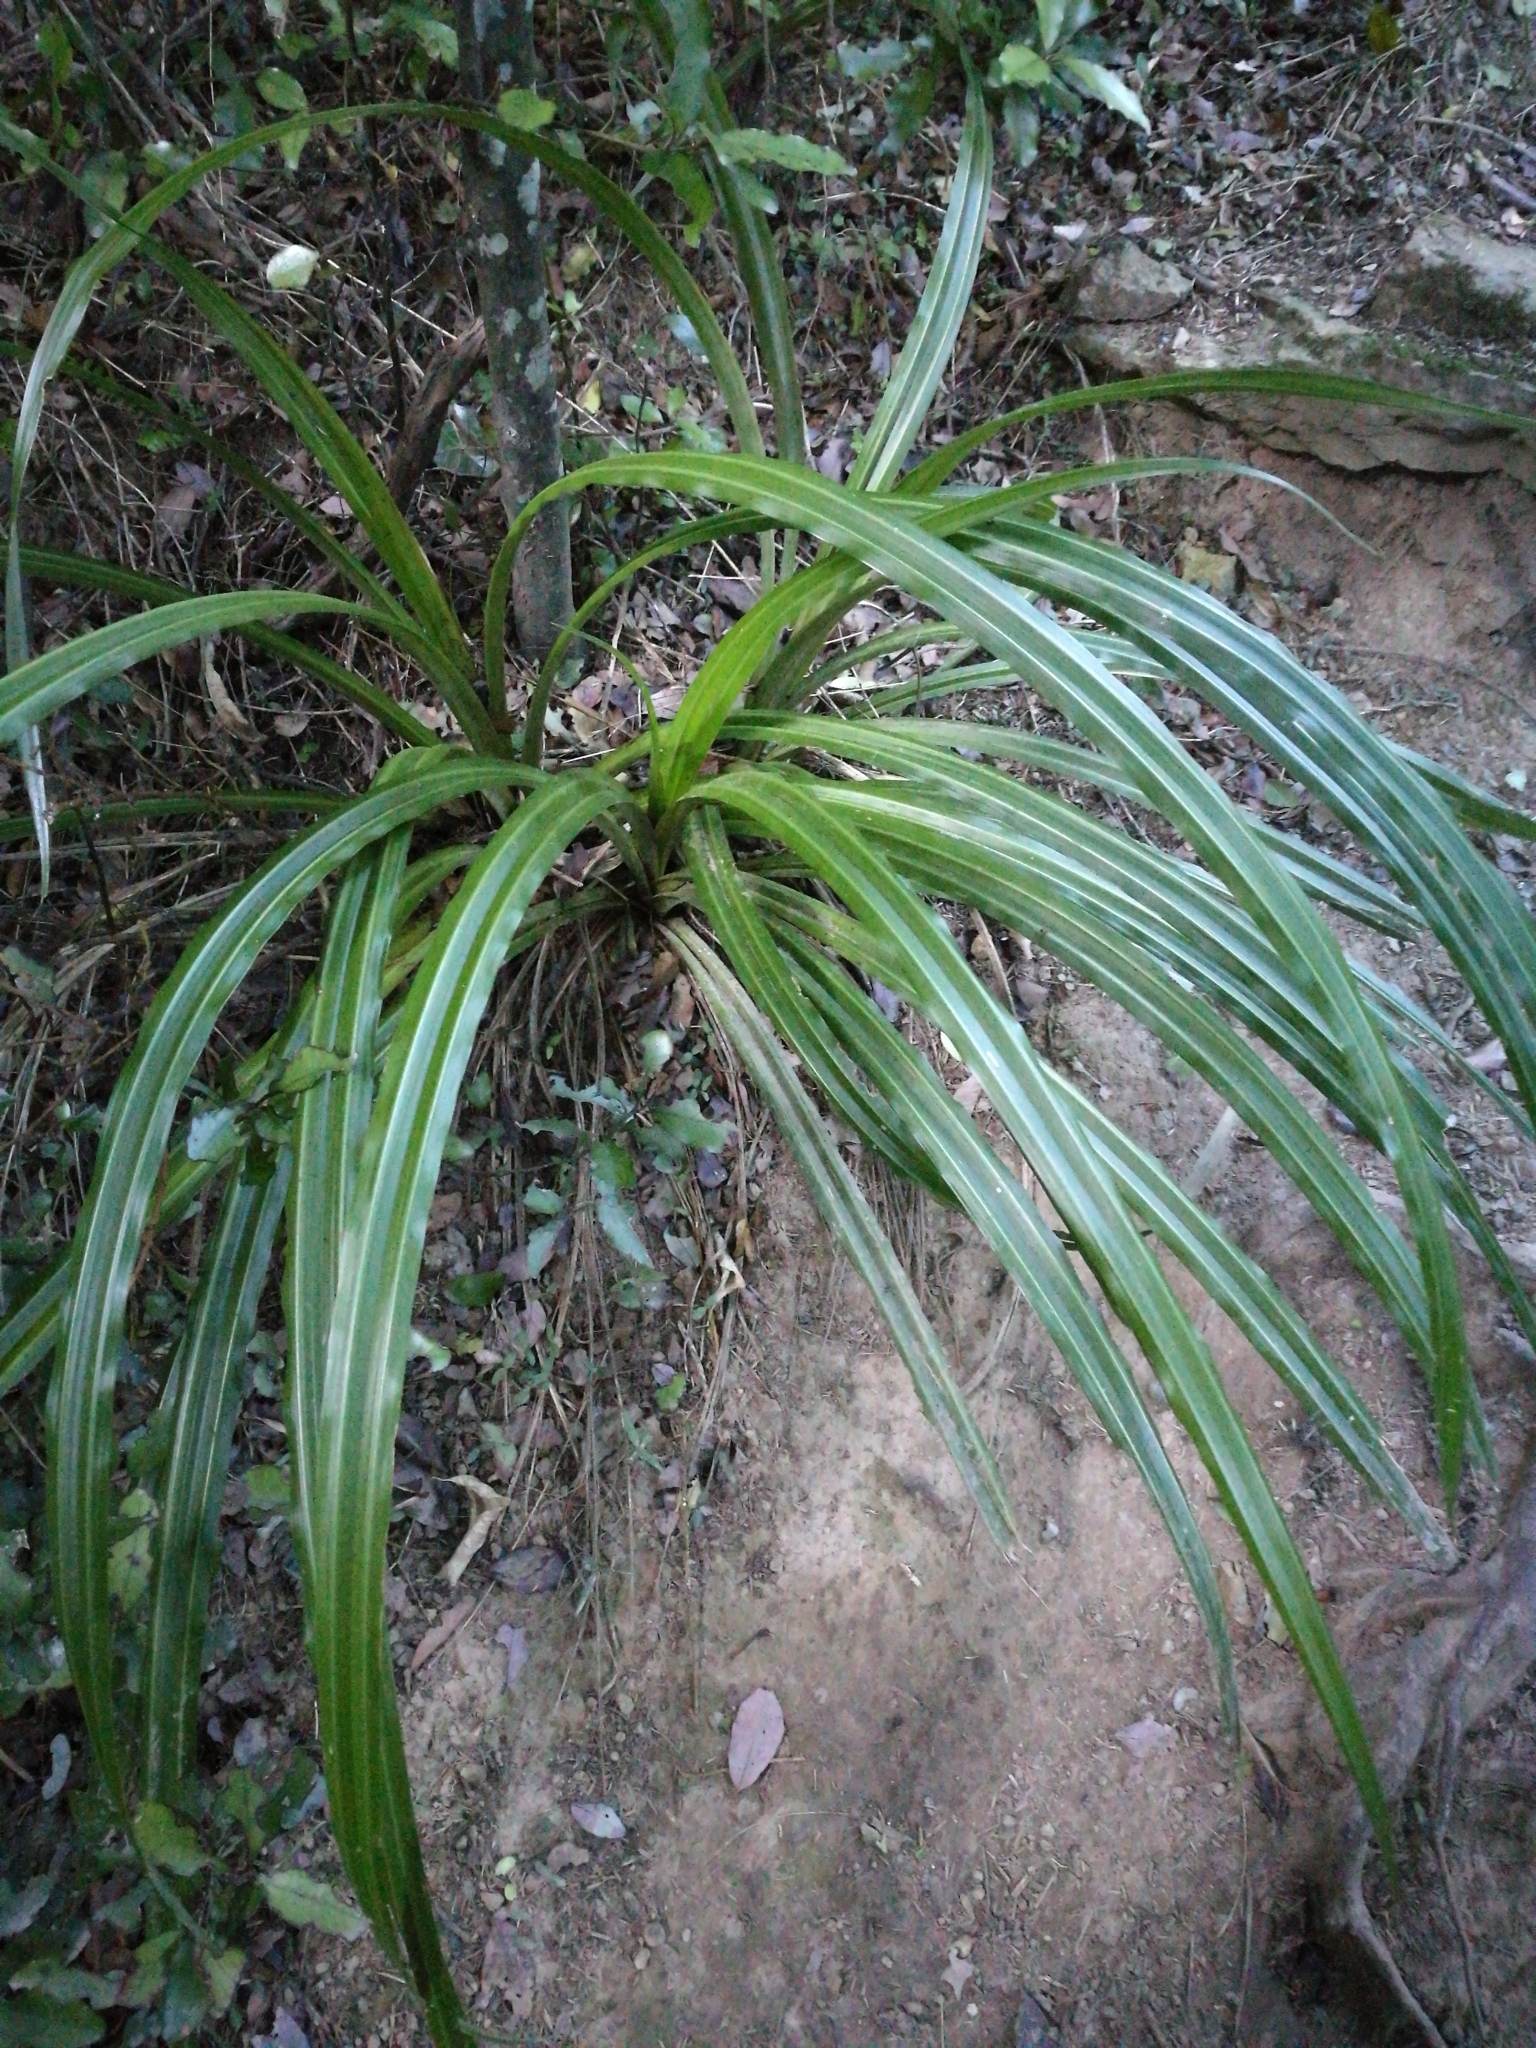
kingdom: Plantae
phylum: Tracheophyta
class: Liliopsida
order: Asparagales
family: Asteliaceae
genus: Astelia
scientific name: Astelia fragrans
